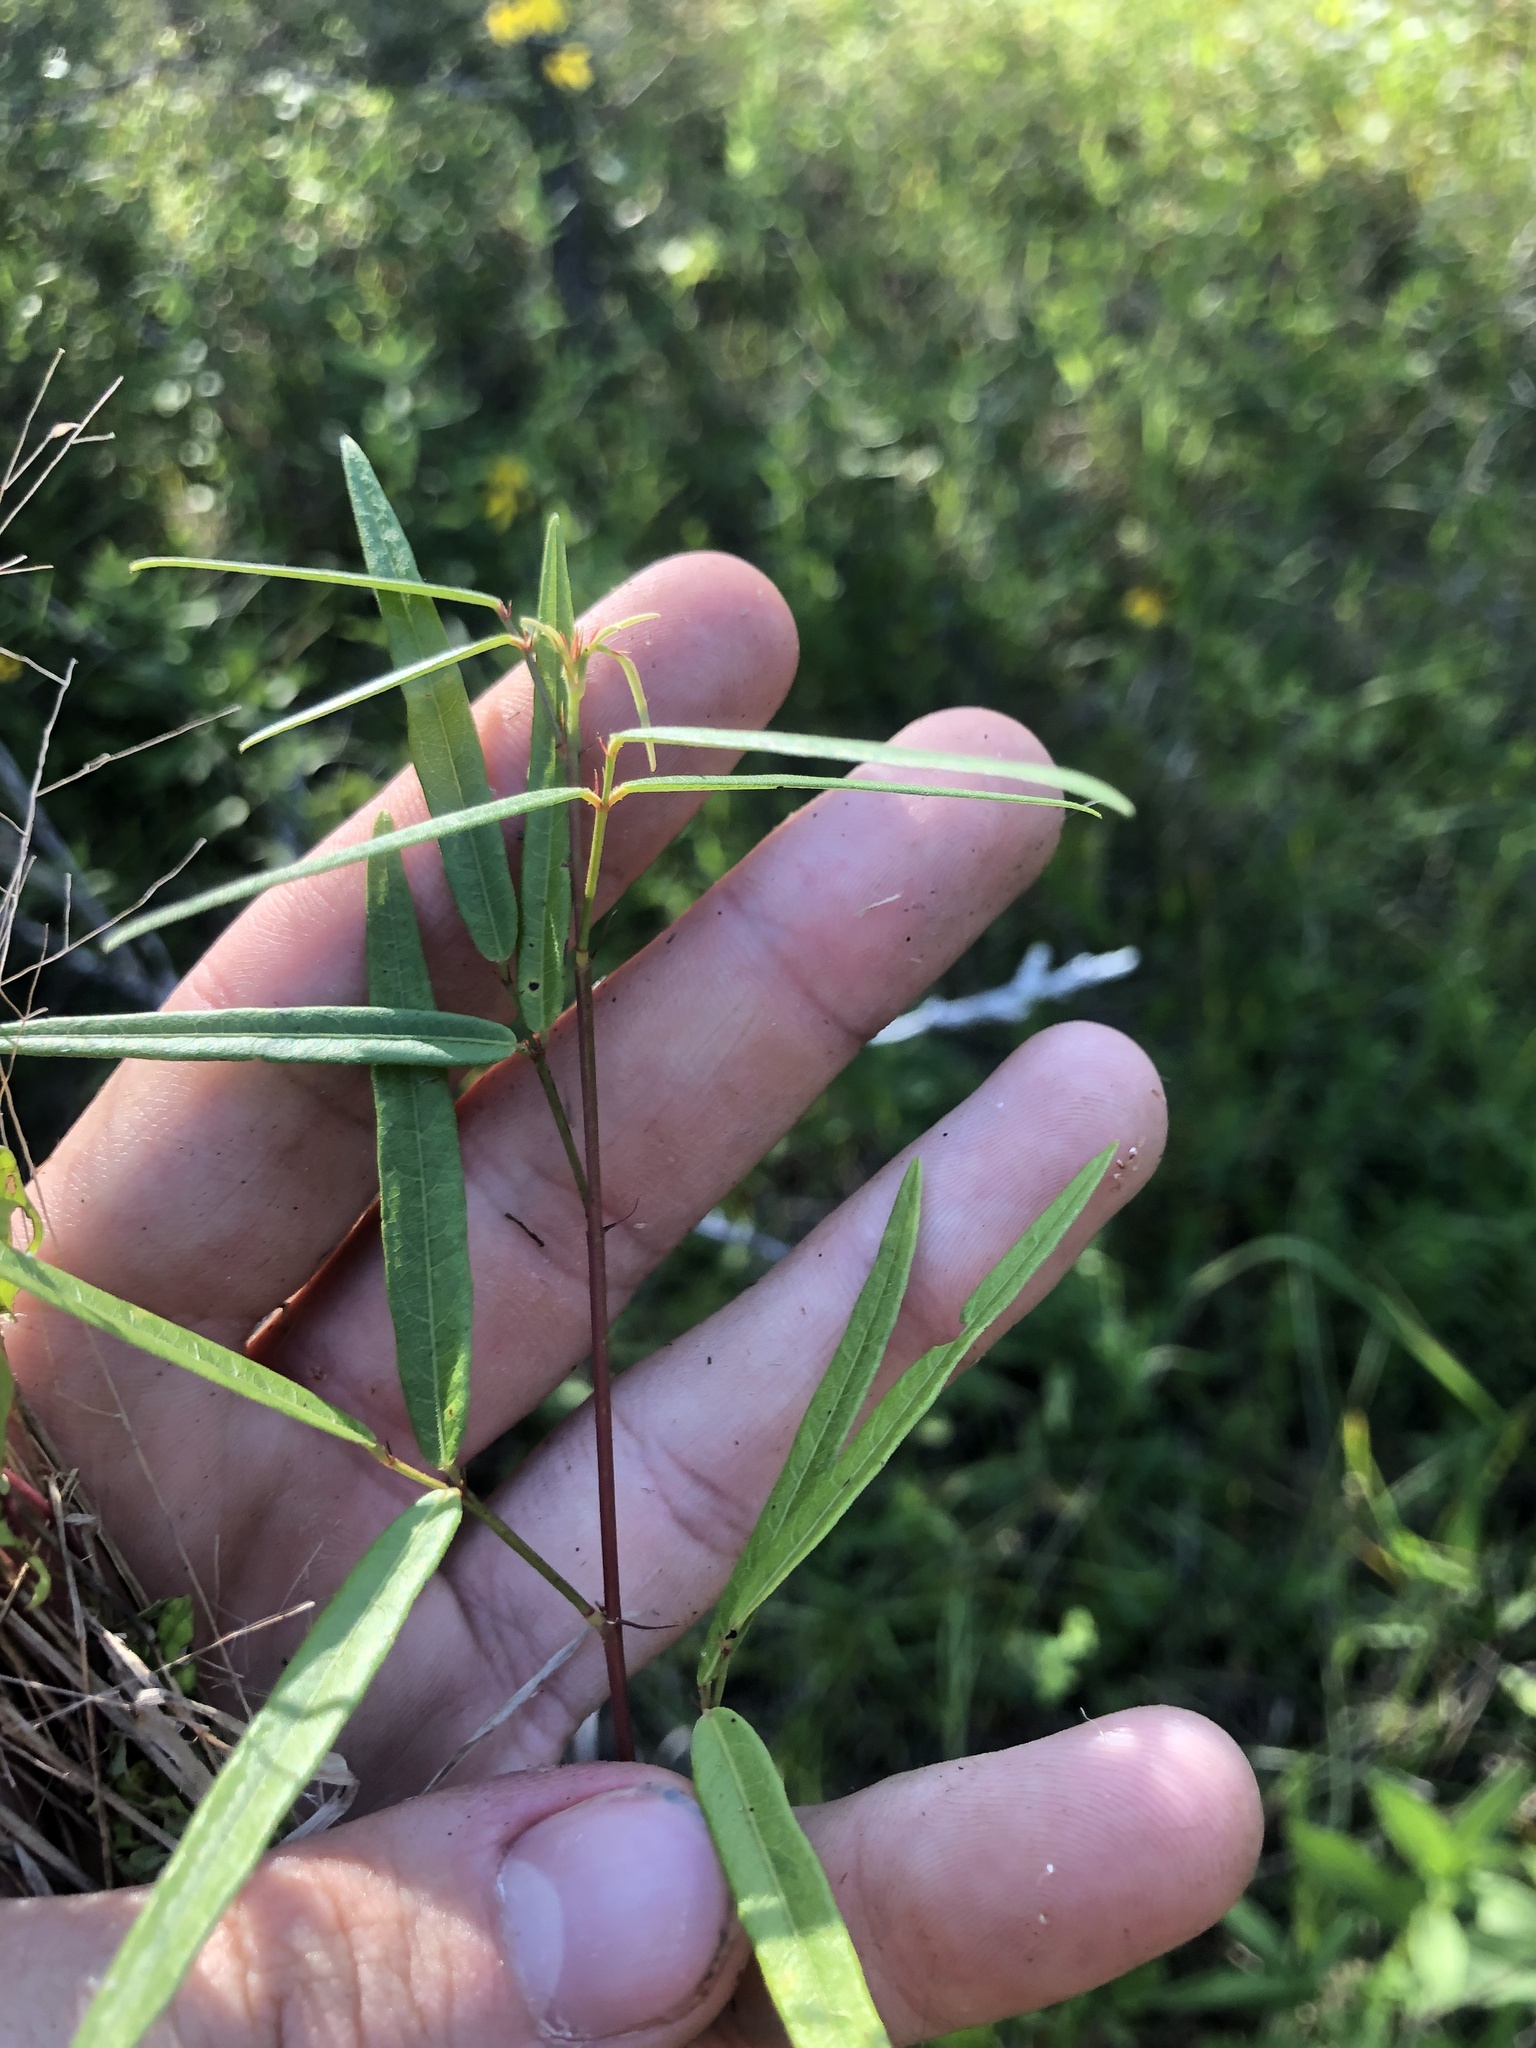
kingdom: Plantae
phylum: Tracheophyta
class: Magnoliopsida
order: Fabales
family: Fabaceae
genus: Desmodium
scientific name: Desmodium paniculatum
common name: Panicled tick-clover
